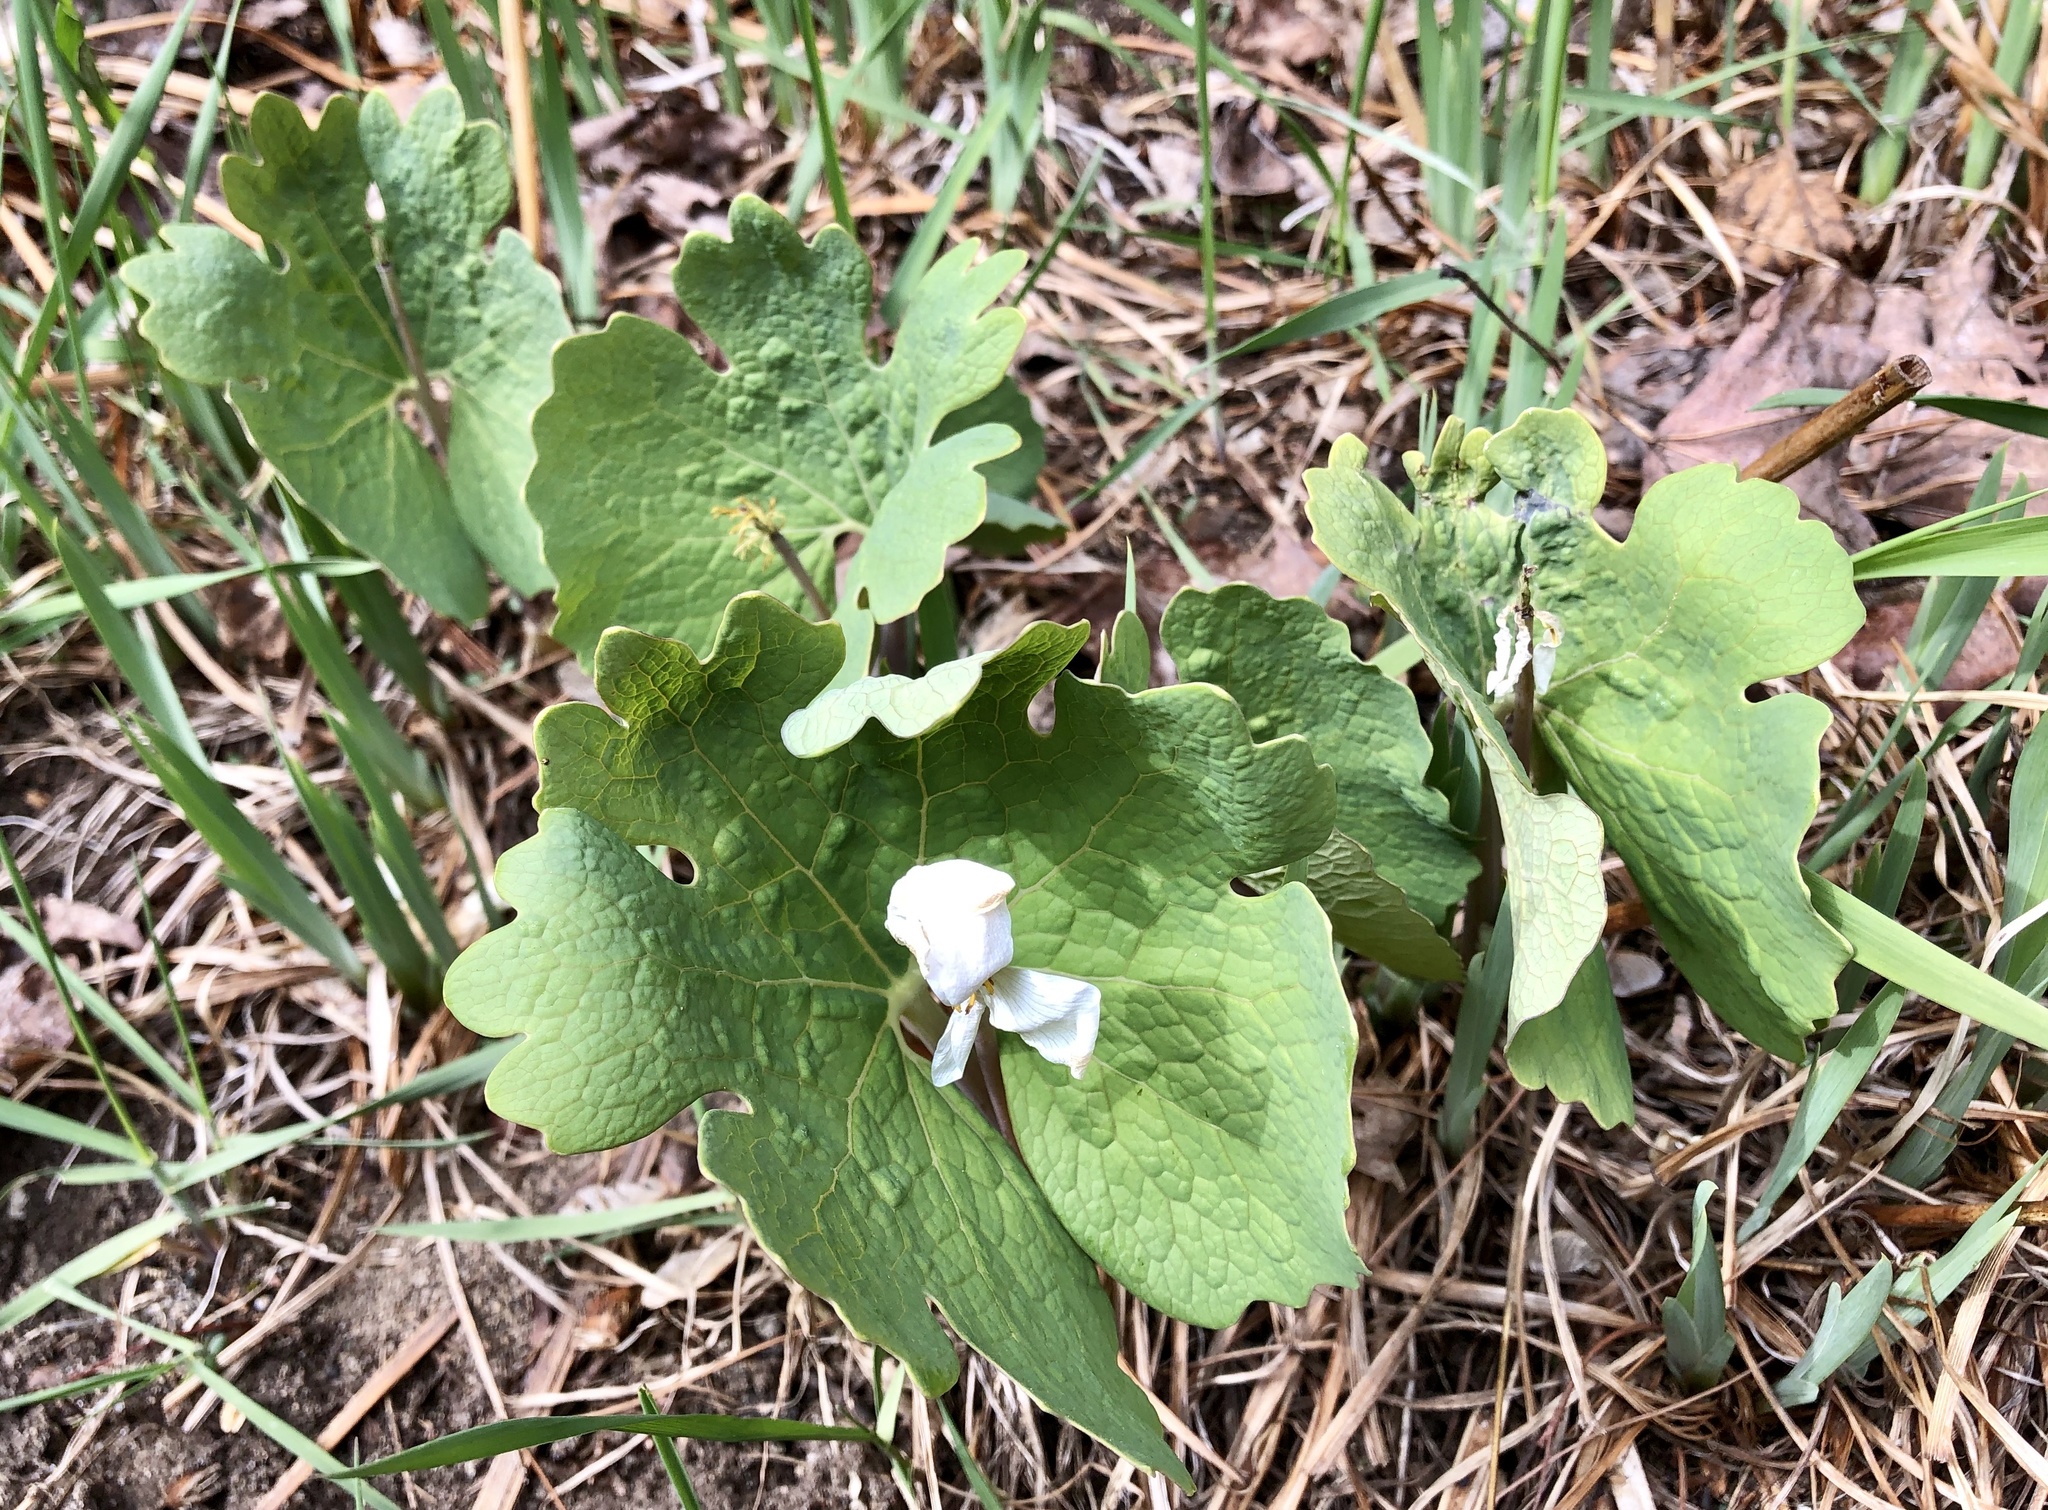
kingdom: Plantae
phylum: Tracheophyta
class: Magnoliopsida
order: Ranunculales
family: Papaveraceae
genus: Sanguinaria
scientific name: Sanguinaria canadensis
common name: Bloodroot
